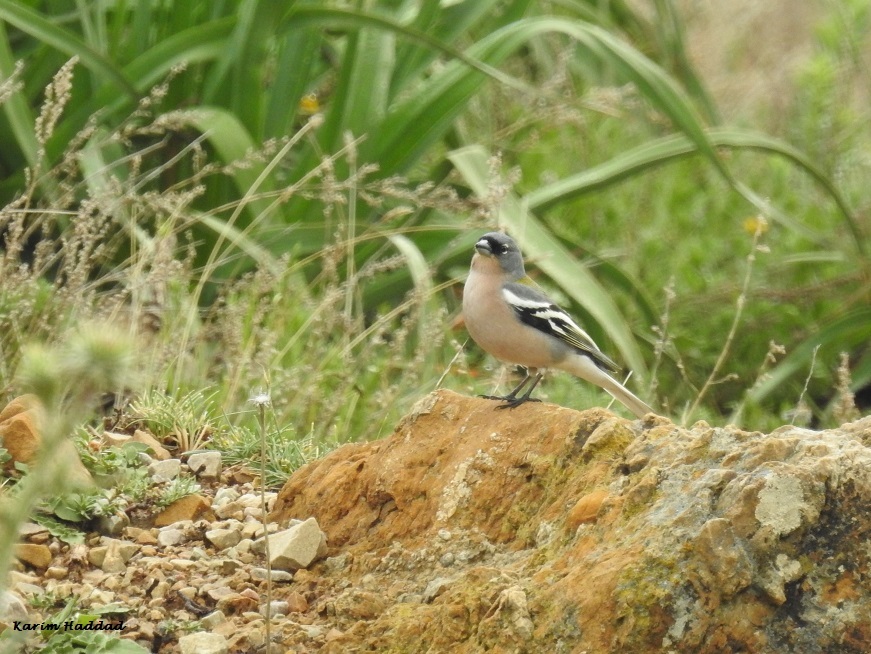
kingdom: Animalia
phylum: Chordata
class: Aves
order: Passeriformes
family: Fringillidae
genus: Fringilla
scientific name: Fringilla spodiogenys
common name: African chaffinch
